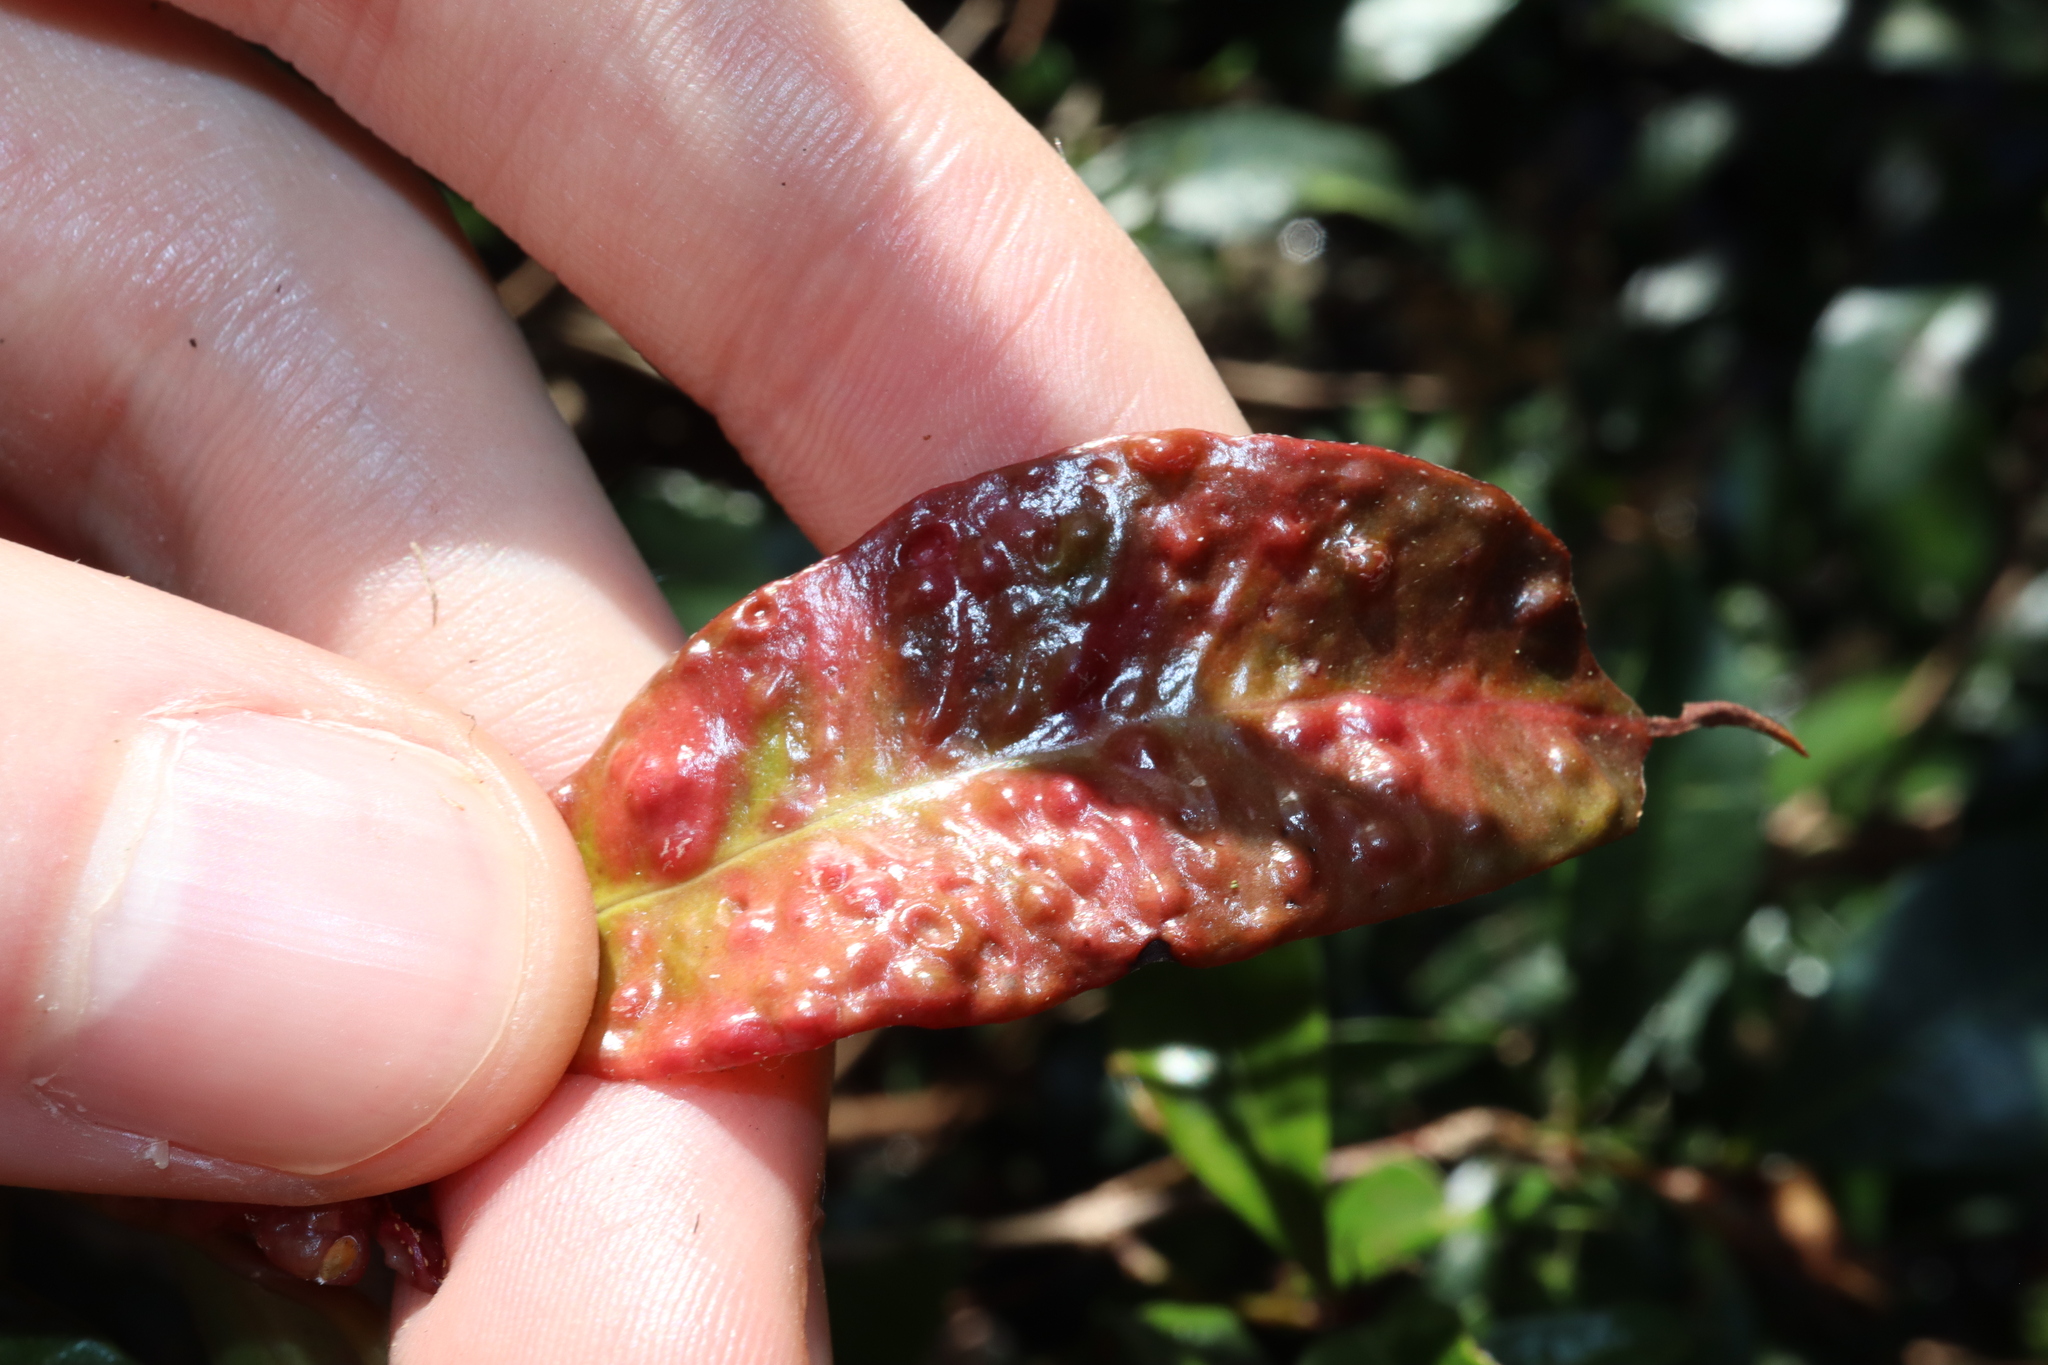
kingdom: Animalia
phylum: Arthropoda
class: Insecta
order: Hemiptera
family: Triozidae
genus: Trioza
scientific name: Trioza adventicia
